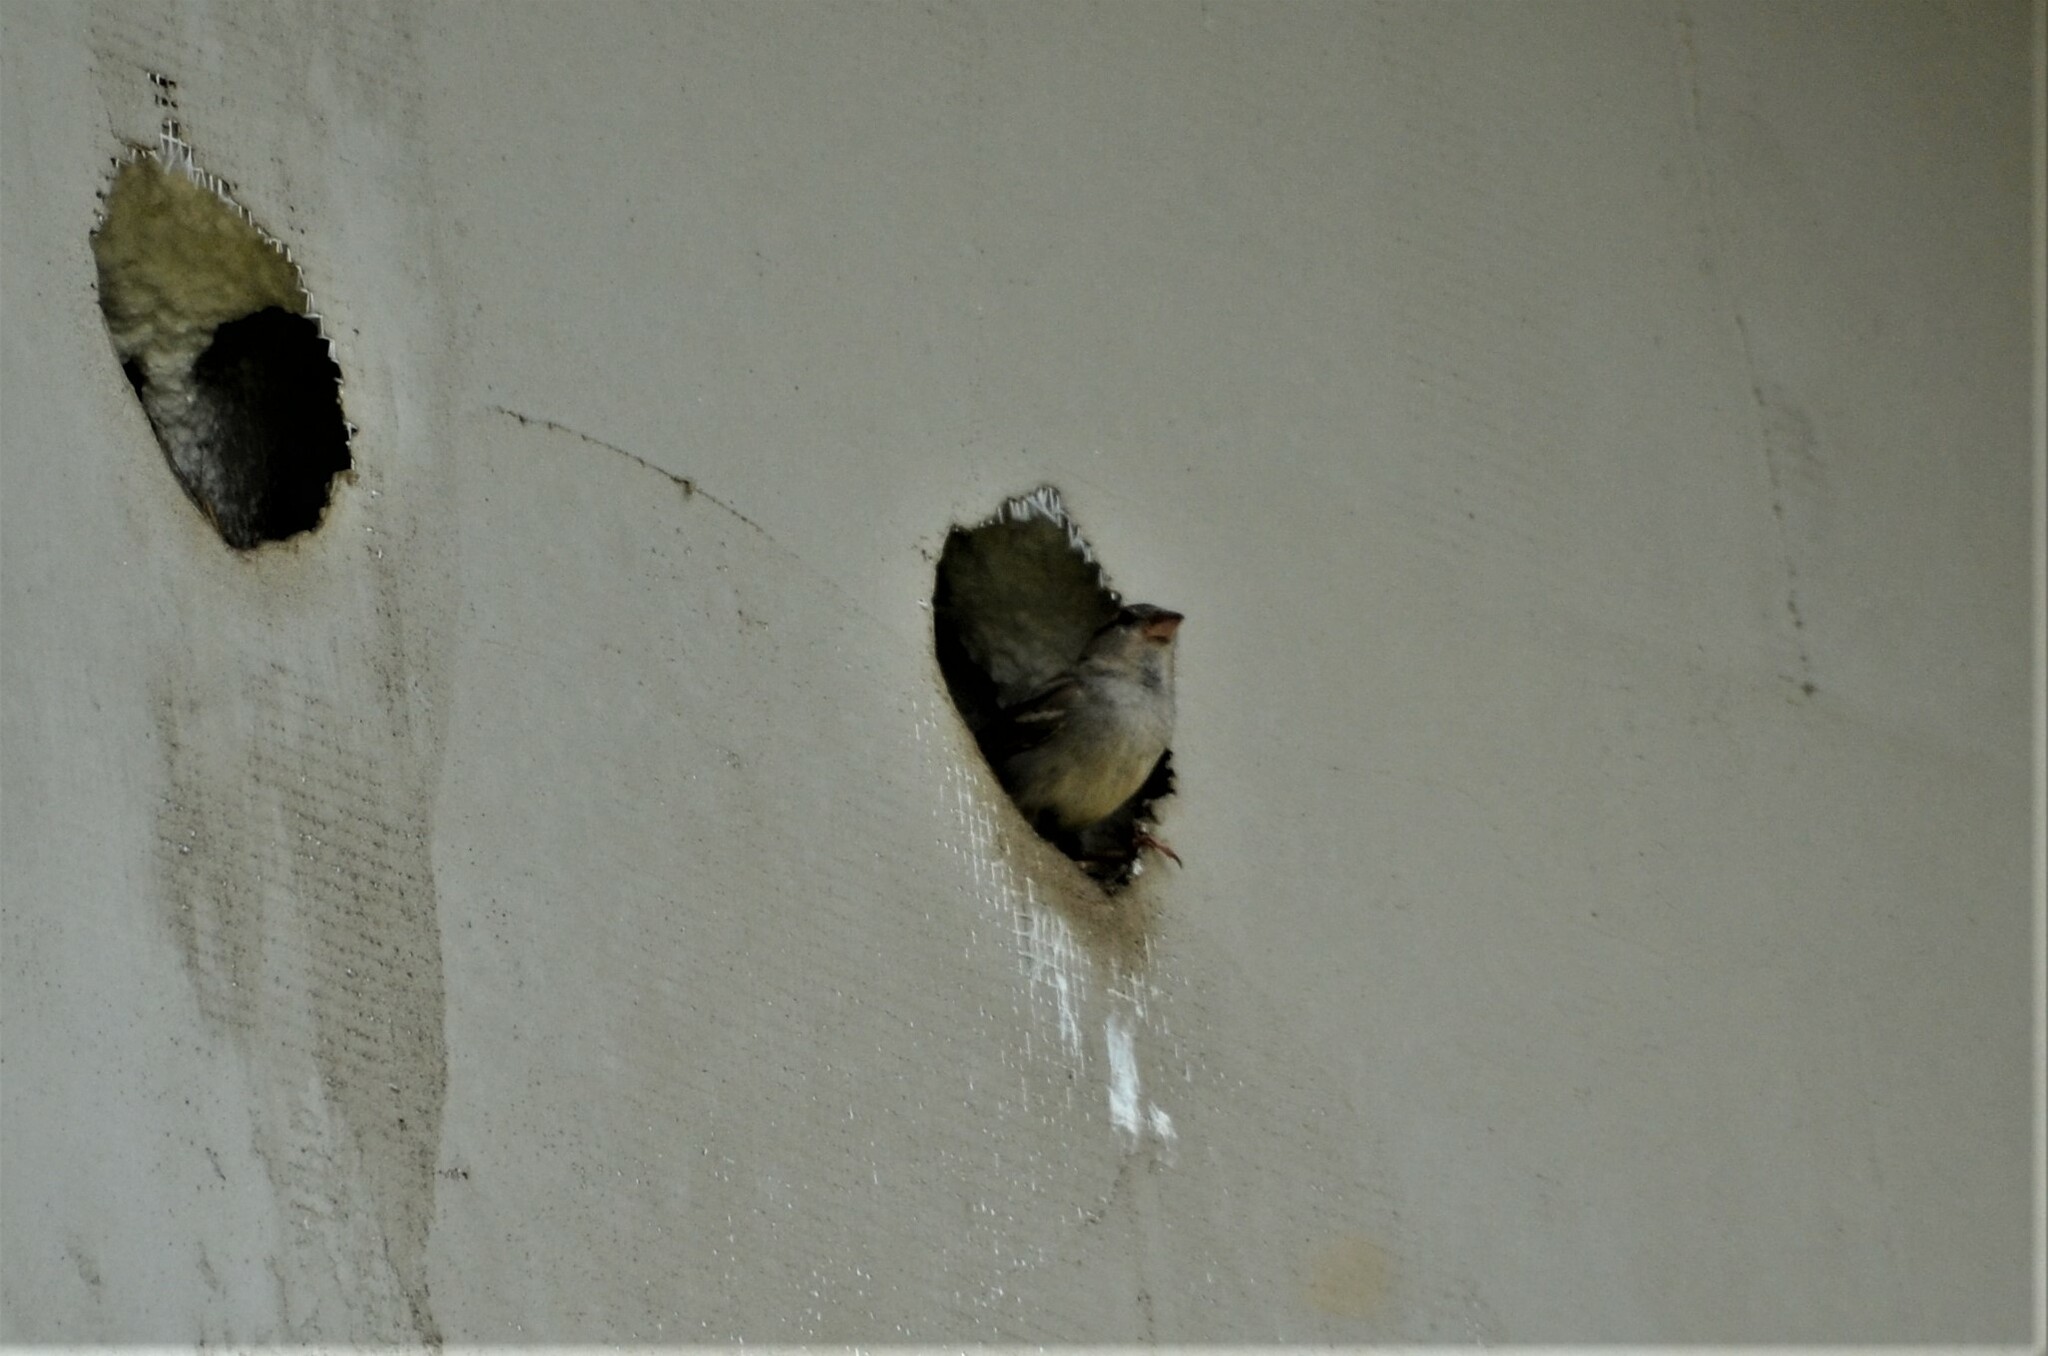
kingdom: Animalia
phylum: Chordata
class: Aves
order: Passeriformes
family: Passeridae
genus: Passer
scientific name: Passer domesticus
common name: House sparrow
